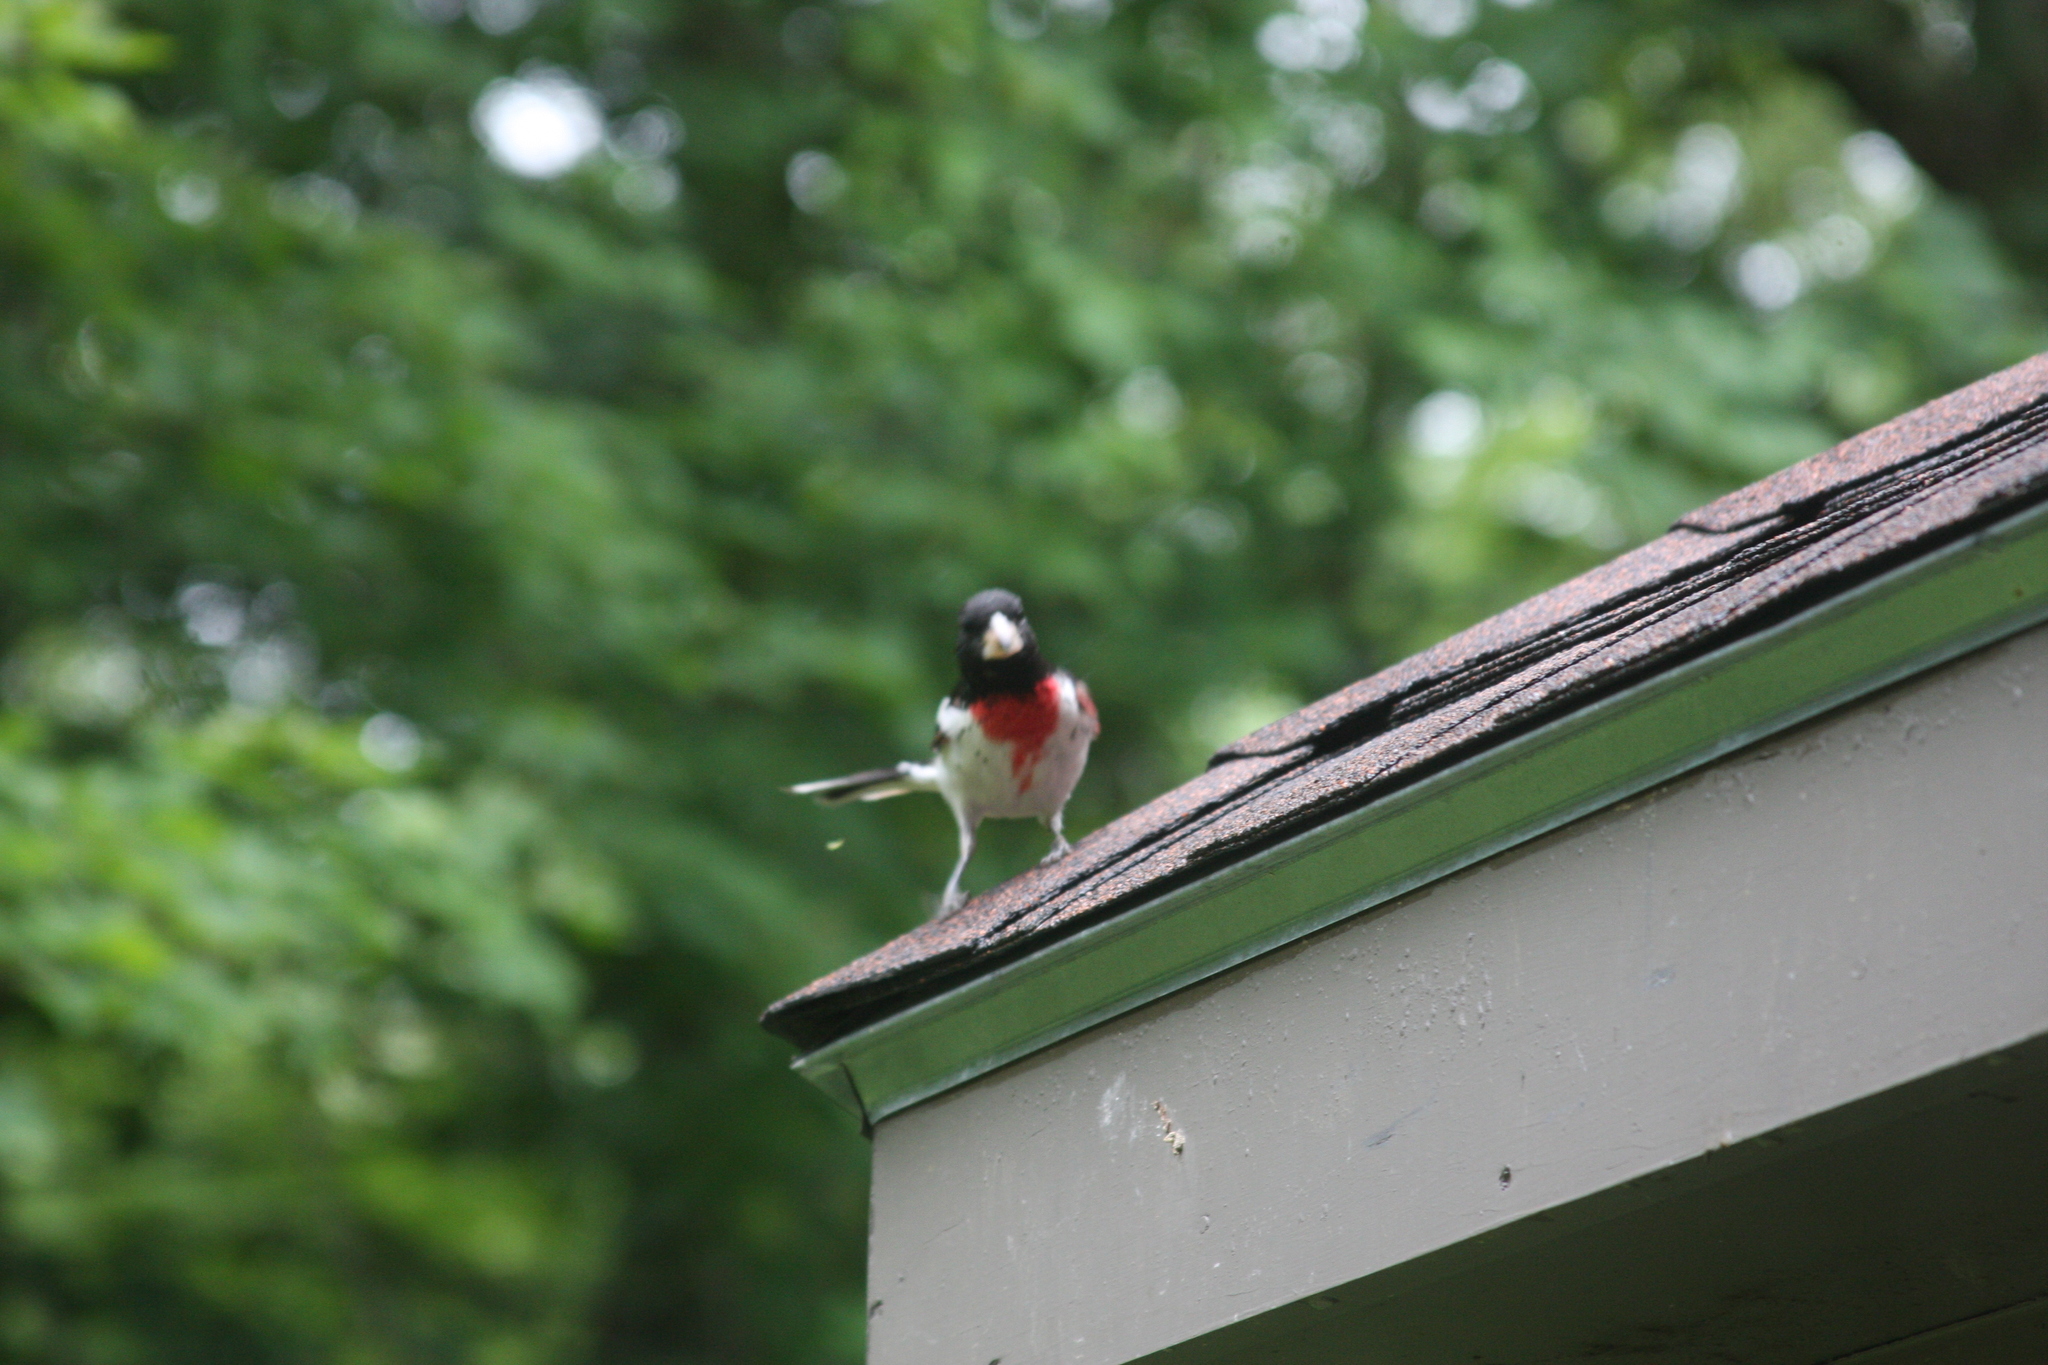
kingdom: Animalia
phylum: Chordata
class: Aves
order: Passeriformes
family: Cardinalidae
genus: Pheucticus
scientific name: Pheucticus ludovicianus
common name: Rose-breasted grosbeak
